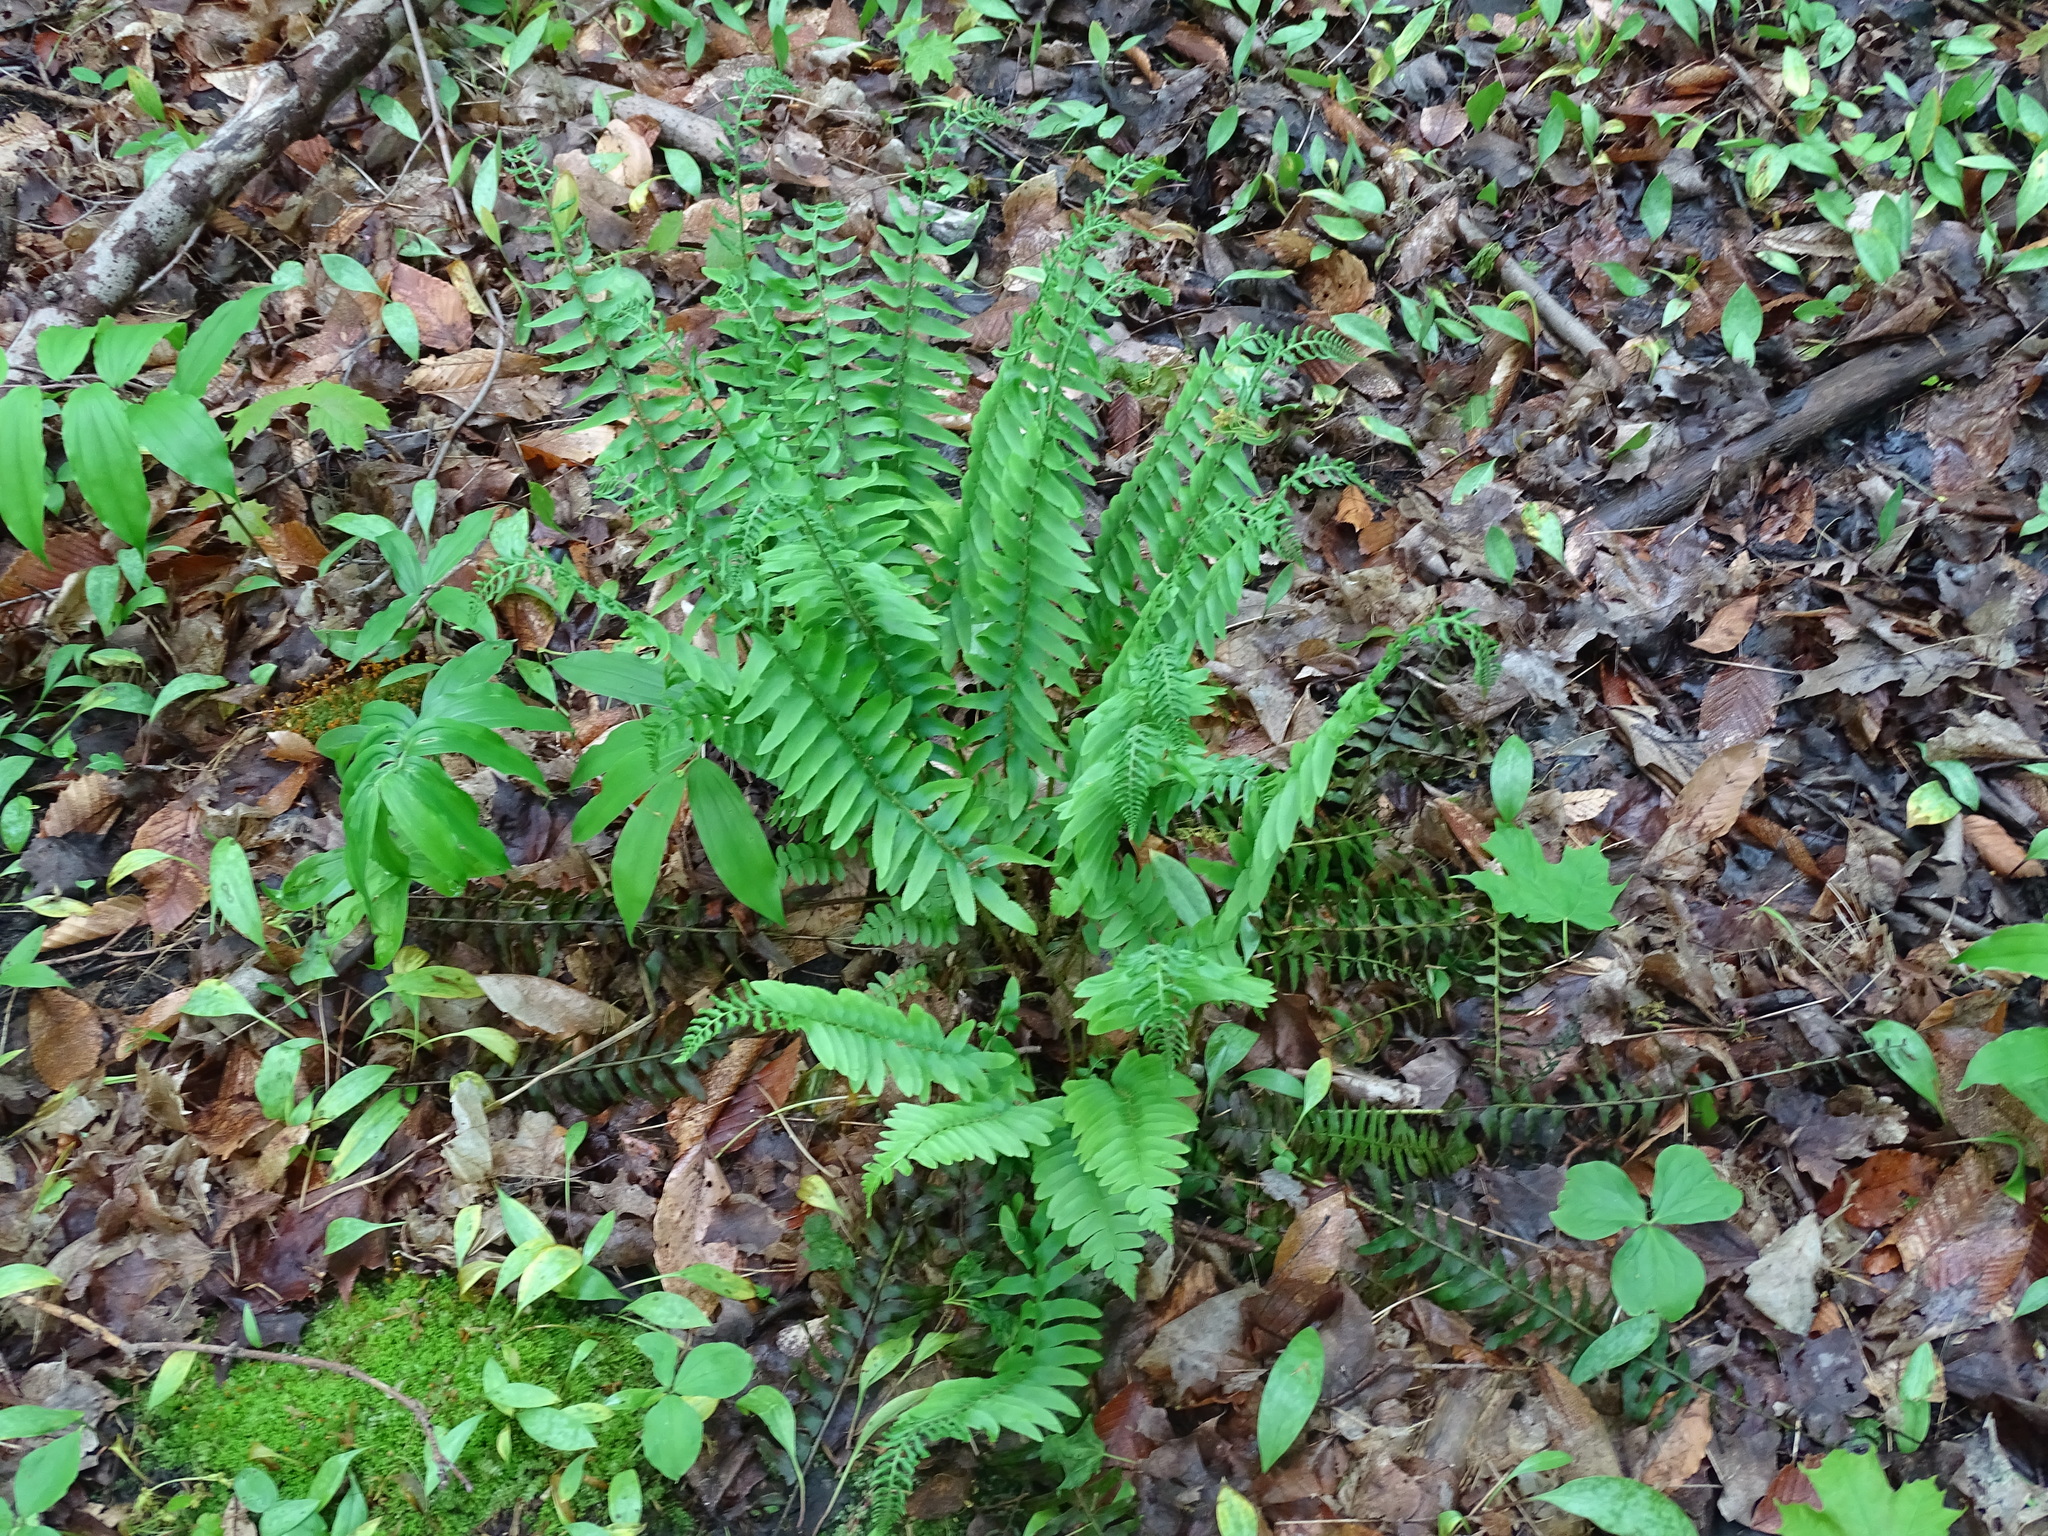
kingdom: Plantae
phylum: Tracheophyta
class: Polypodiopsida
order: Polypodiales
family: Dryopteridaceae
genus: Polystichum
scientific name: Polystichum acrostichoides
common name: Christmas fern
